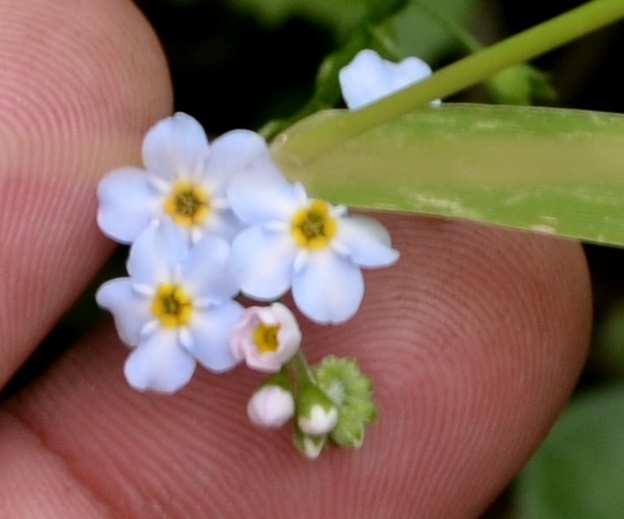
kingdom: Plantae
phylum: Tracheophyta
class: Magnoliopsida
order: Boraginales
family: Boraginaceae
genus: Myosotis
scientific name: Myosotis scorpioides
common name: Water forget-me-not
